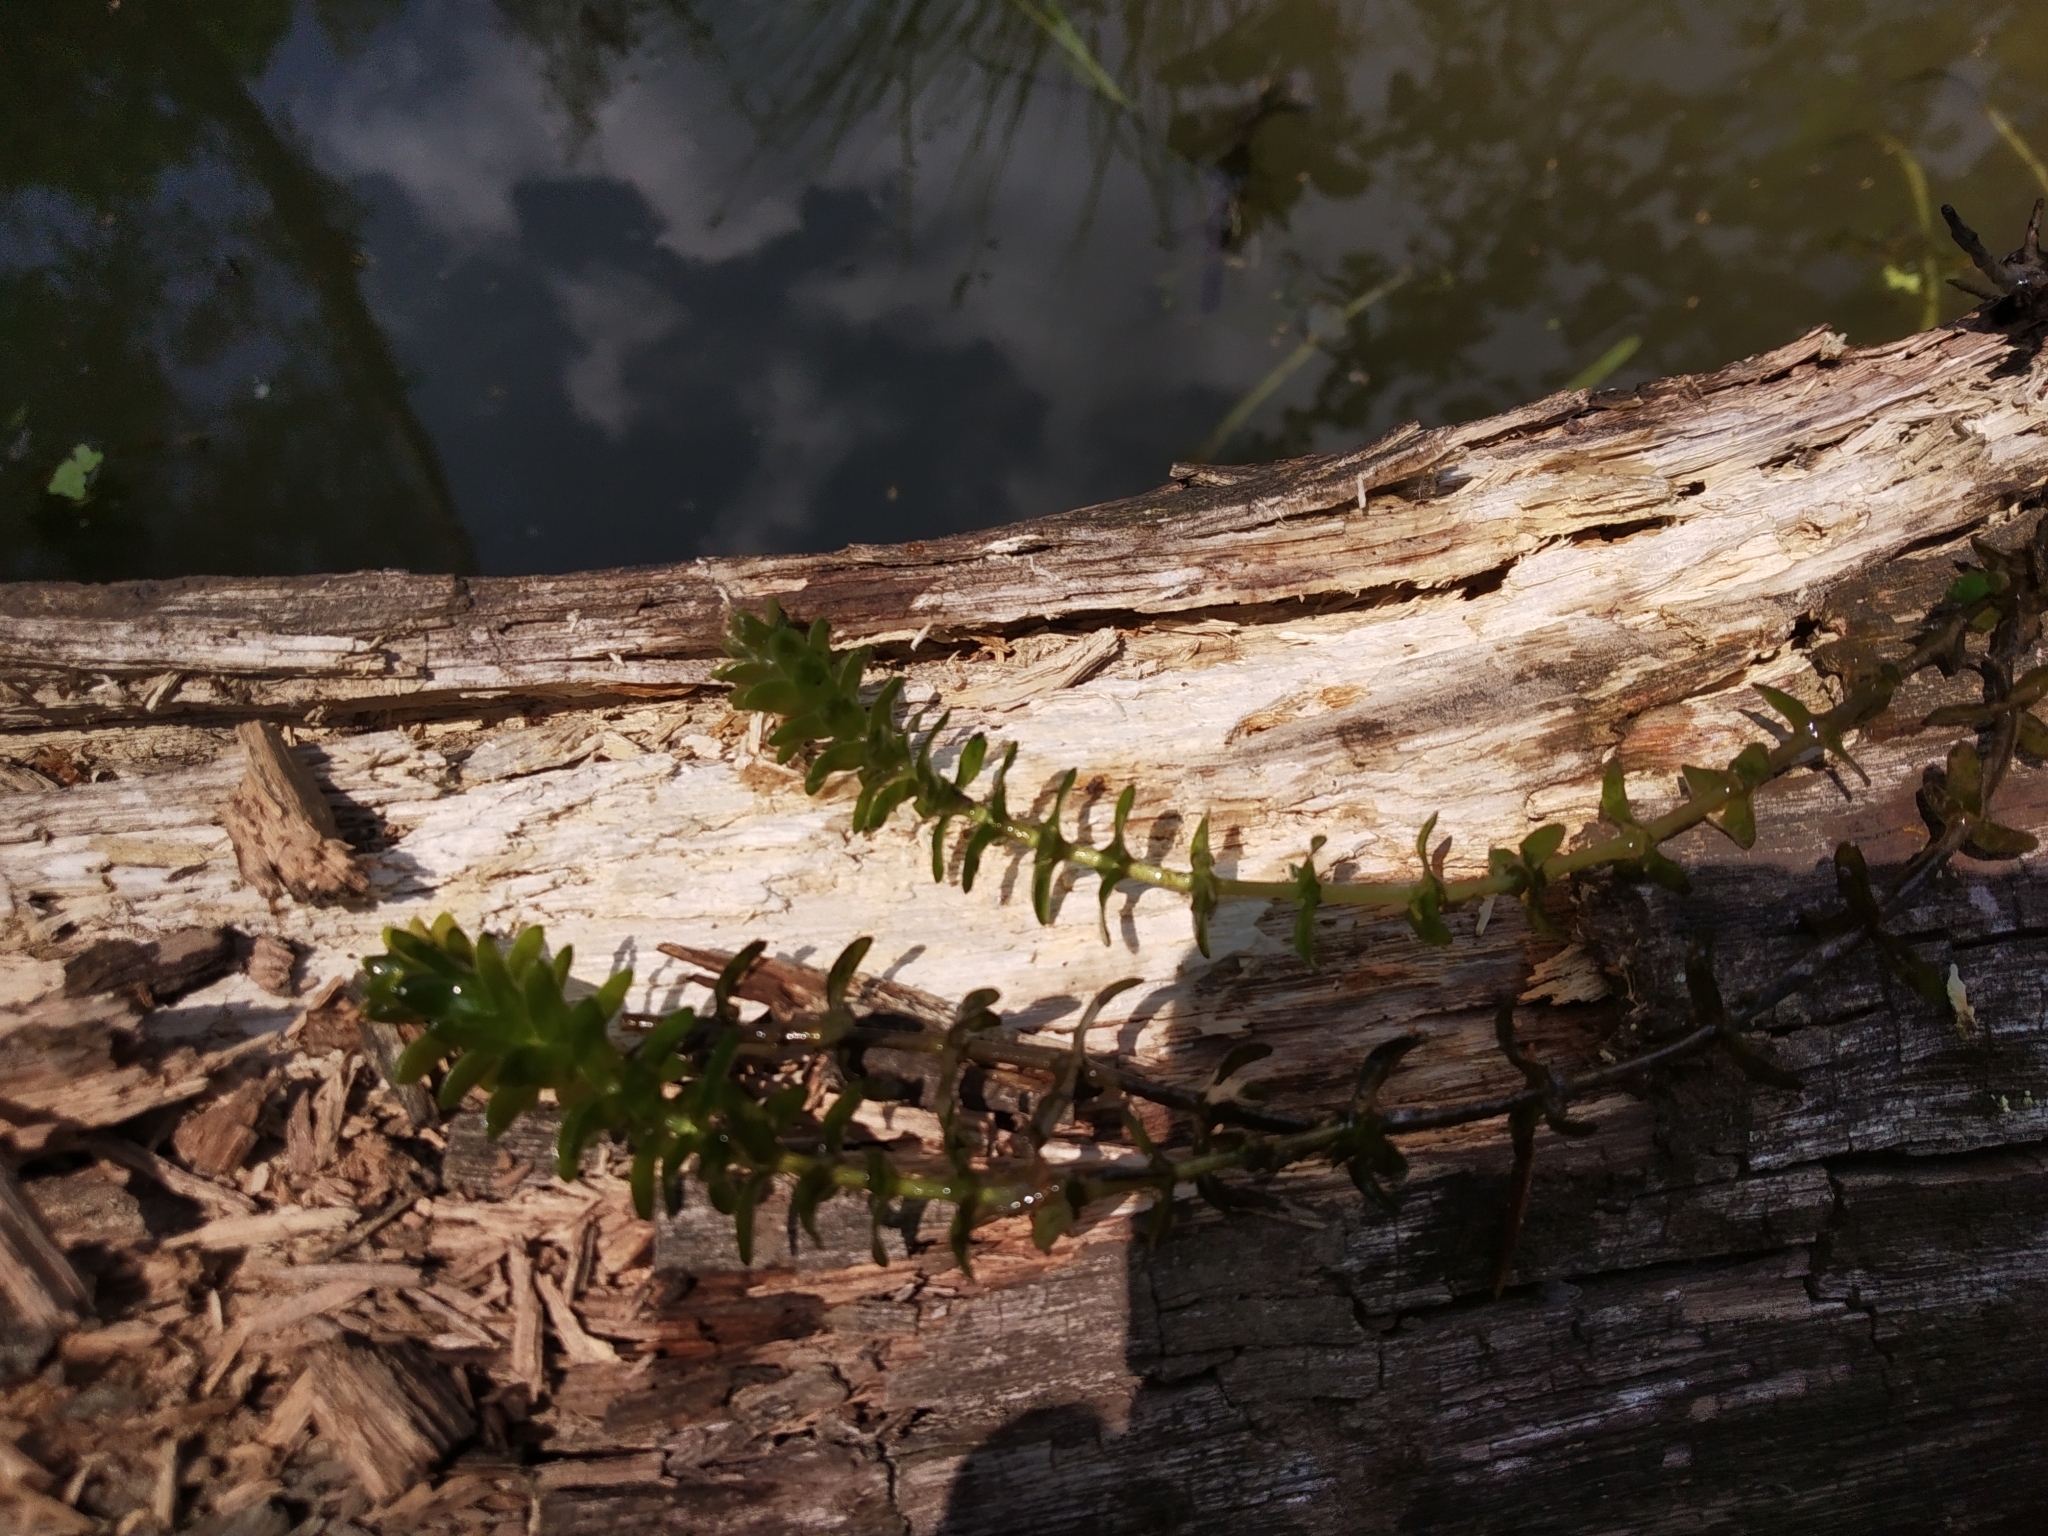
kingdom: Plantae
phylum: Tracheophyta
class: Liliopsida
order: Alismatales
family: Hydrocharitaceae
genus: Elodea
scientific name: Elodea canadensis
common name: Canadian waterweed
